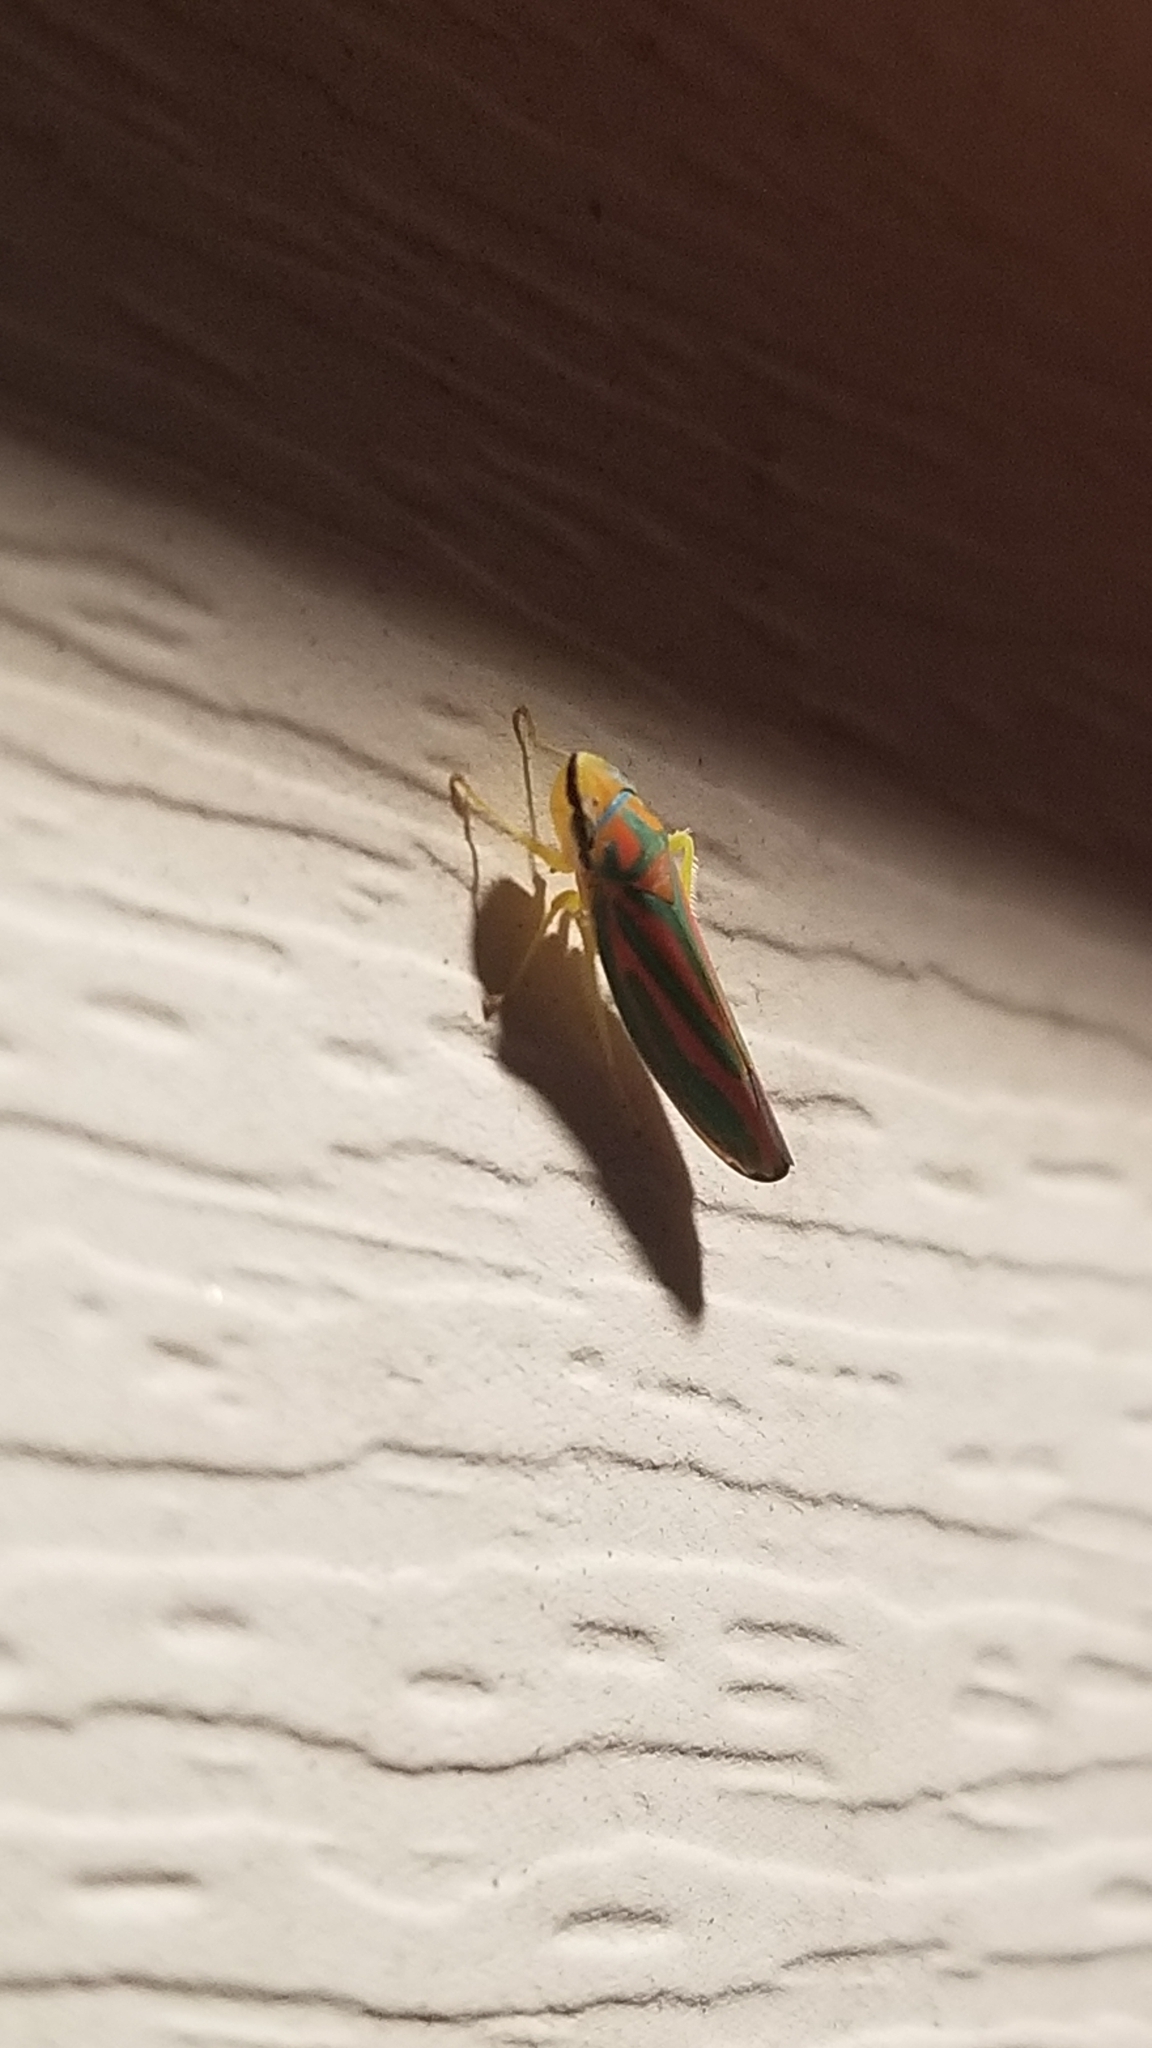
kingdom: Animalia
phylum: Arthropoda
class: Insecta
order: Hemiptera
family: Cicadellidae
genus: Graphocephala
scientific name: Graphocephala coccinea
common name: Candy-striped leafhopper
